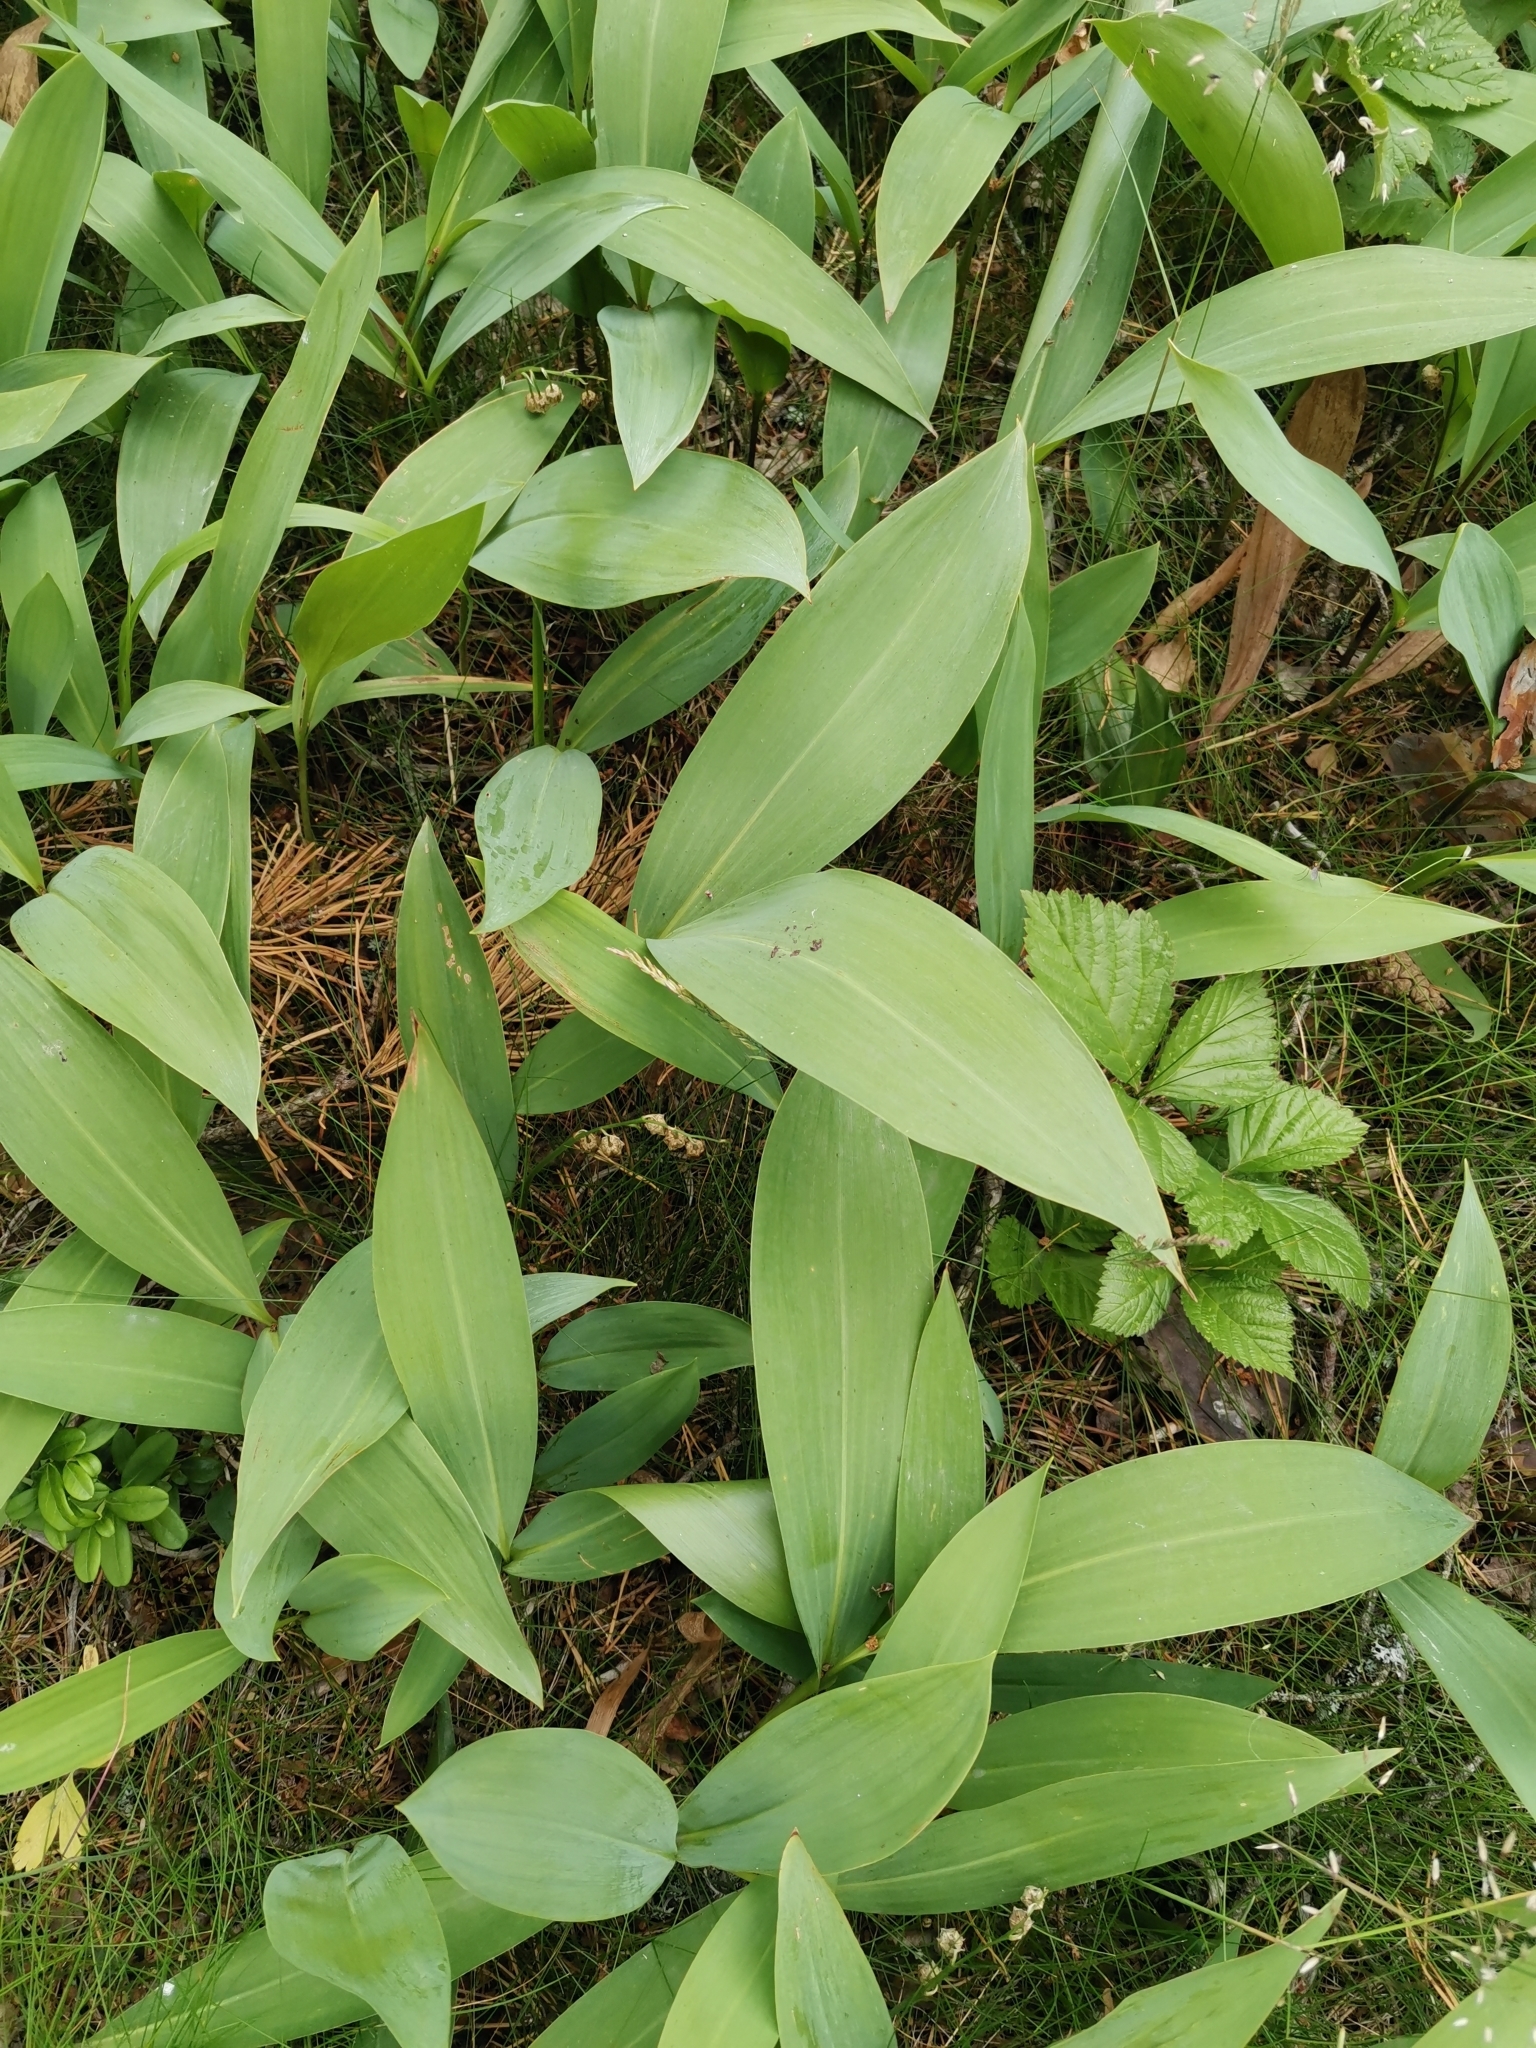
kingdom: Plantae
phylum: Tracheophyta
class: Liliopsida
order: Asparagales
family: Asparagaceae
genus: Convallaria
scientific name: Convallaria majalis
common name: Lily-of-the-valley
